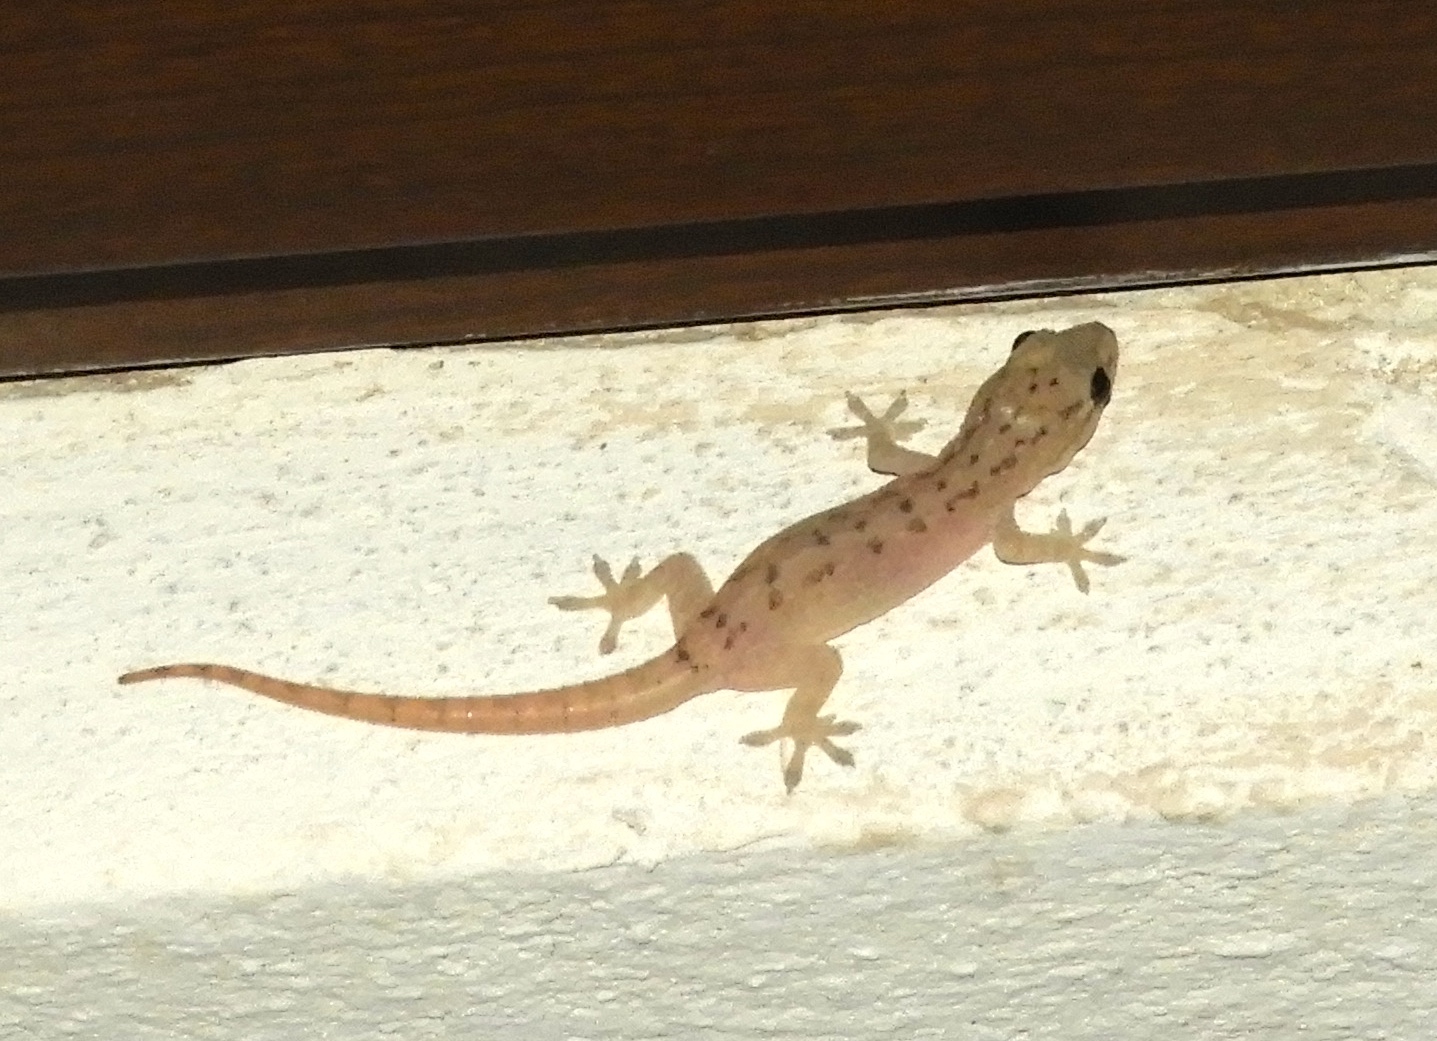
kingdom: Animalia
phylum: Chordata
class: Squamata
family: Gekkonidae
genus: Hemidactylus
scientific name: Hemidactylus frenatus
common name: Common house gecko
